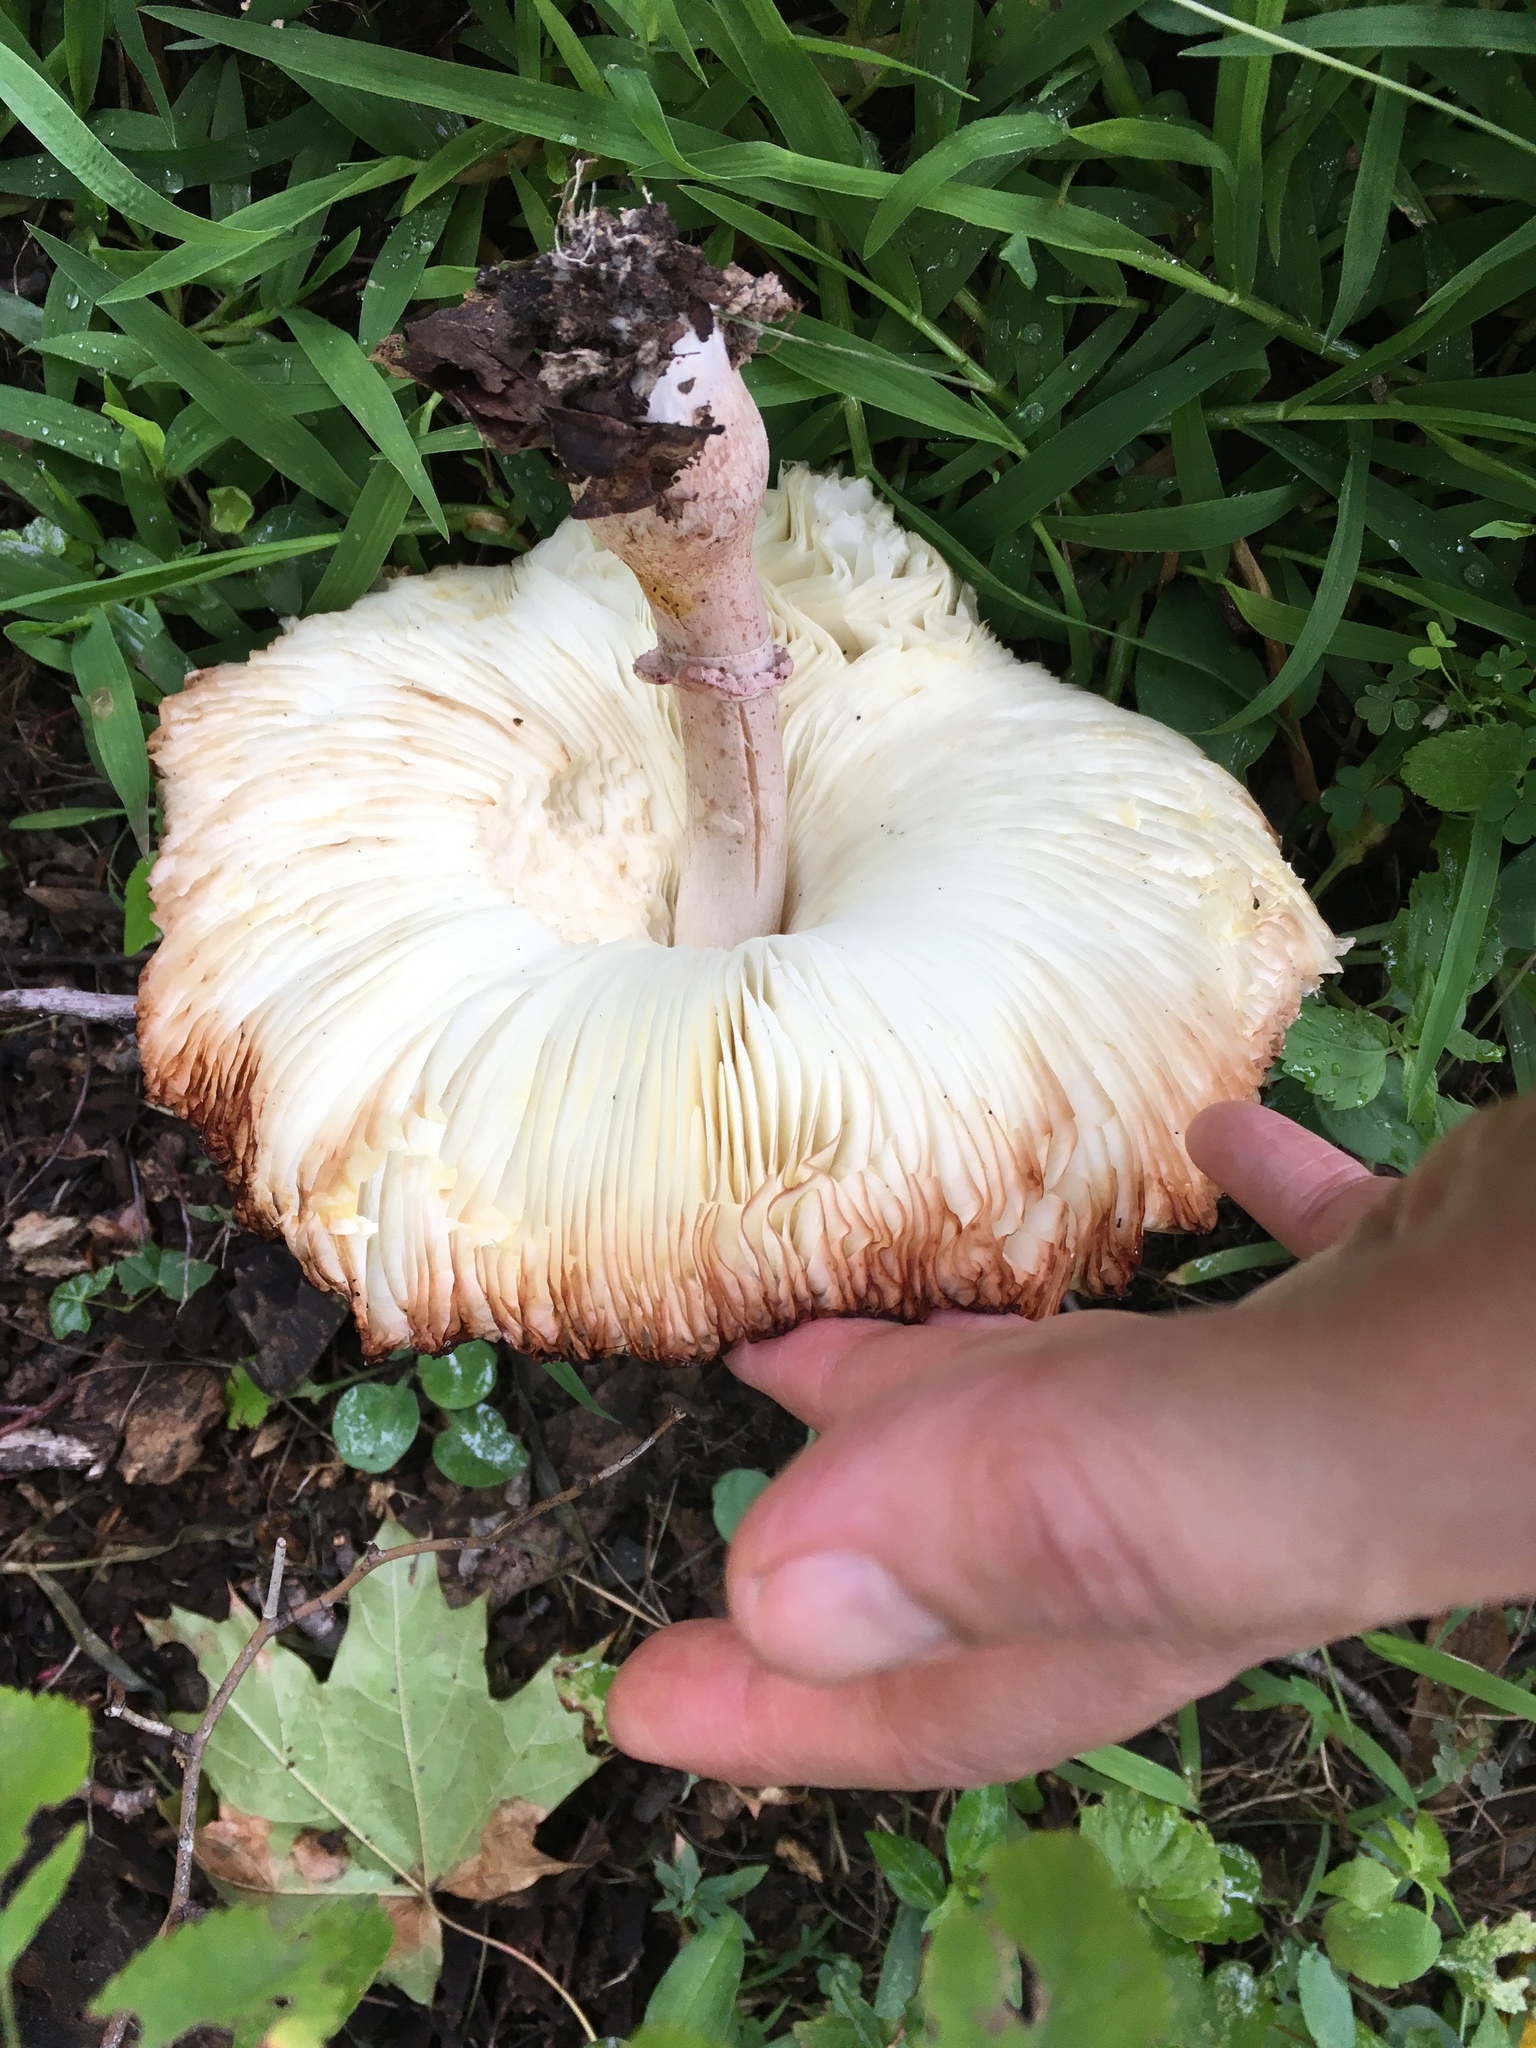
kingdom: Fungi
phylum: Basidiomycota
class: Agaricomycetes
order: Agaricales
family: Agaricaceae
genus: Leucoagaricus
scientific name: Leucoagaricus americanus
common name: Reddening lepiota
